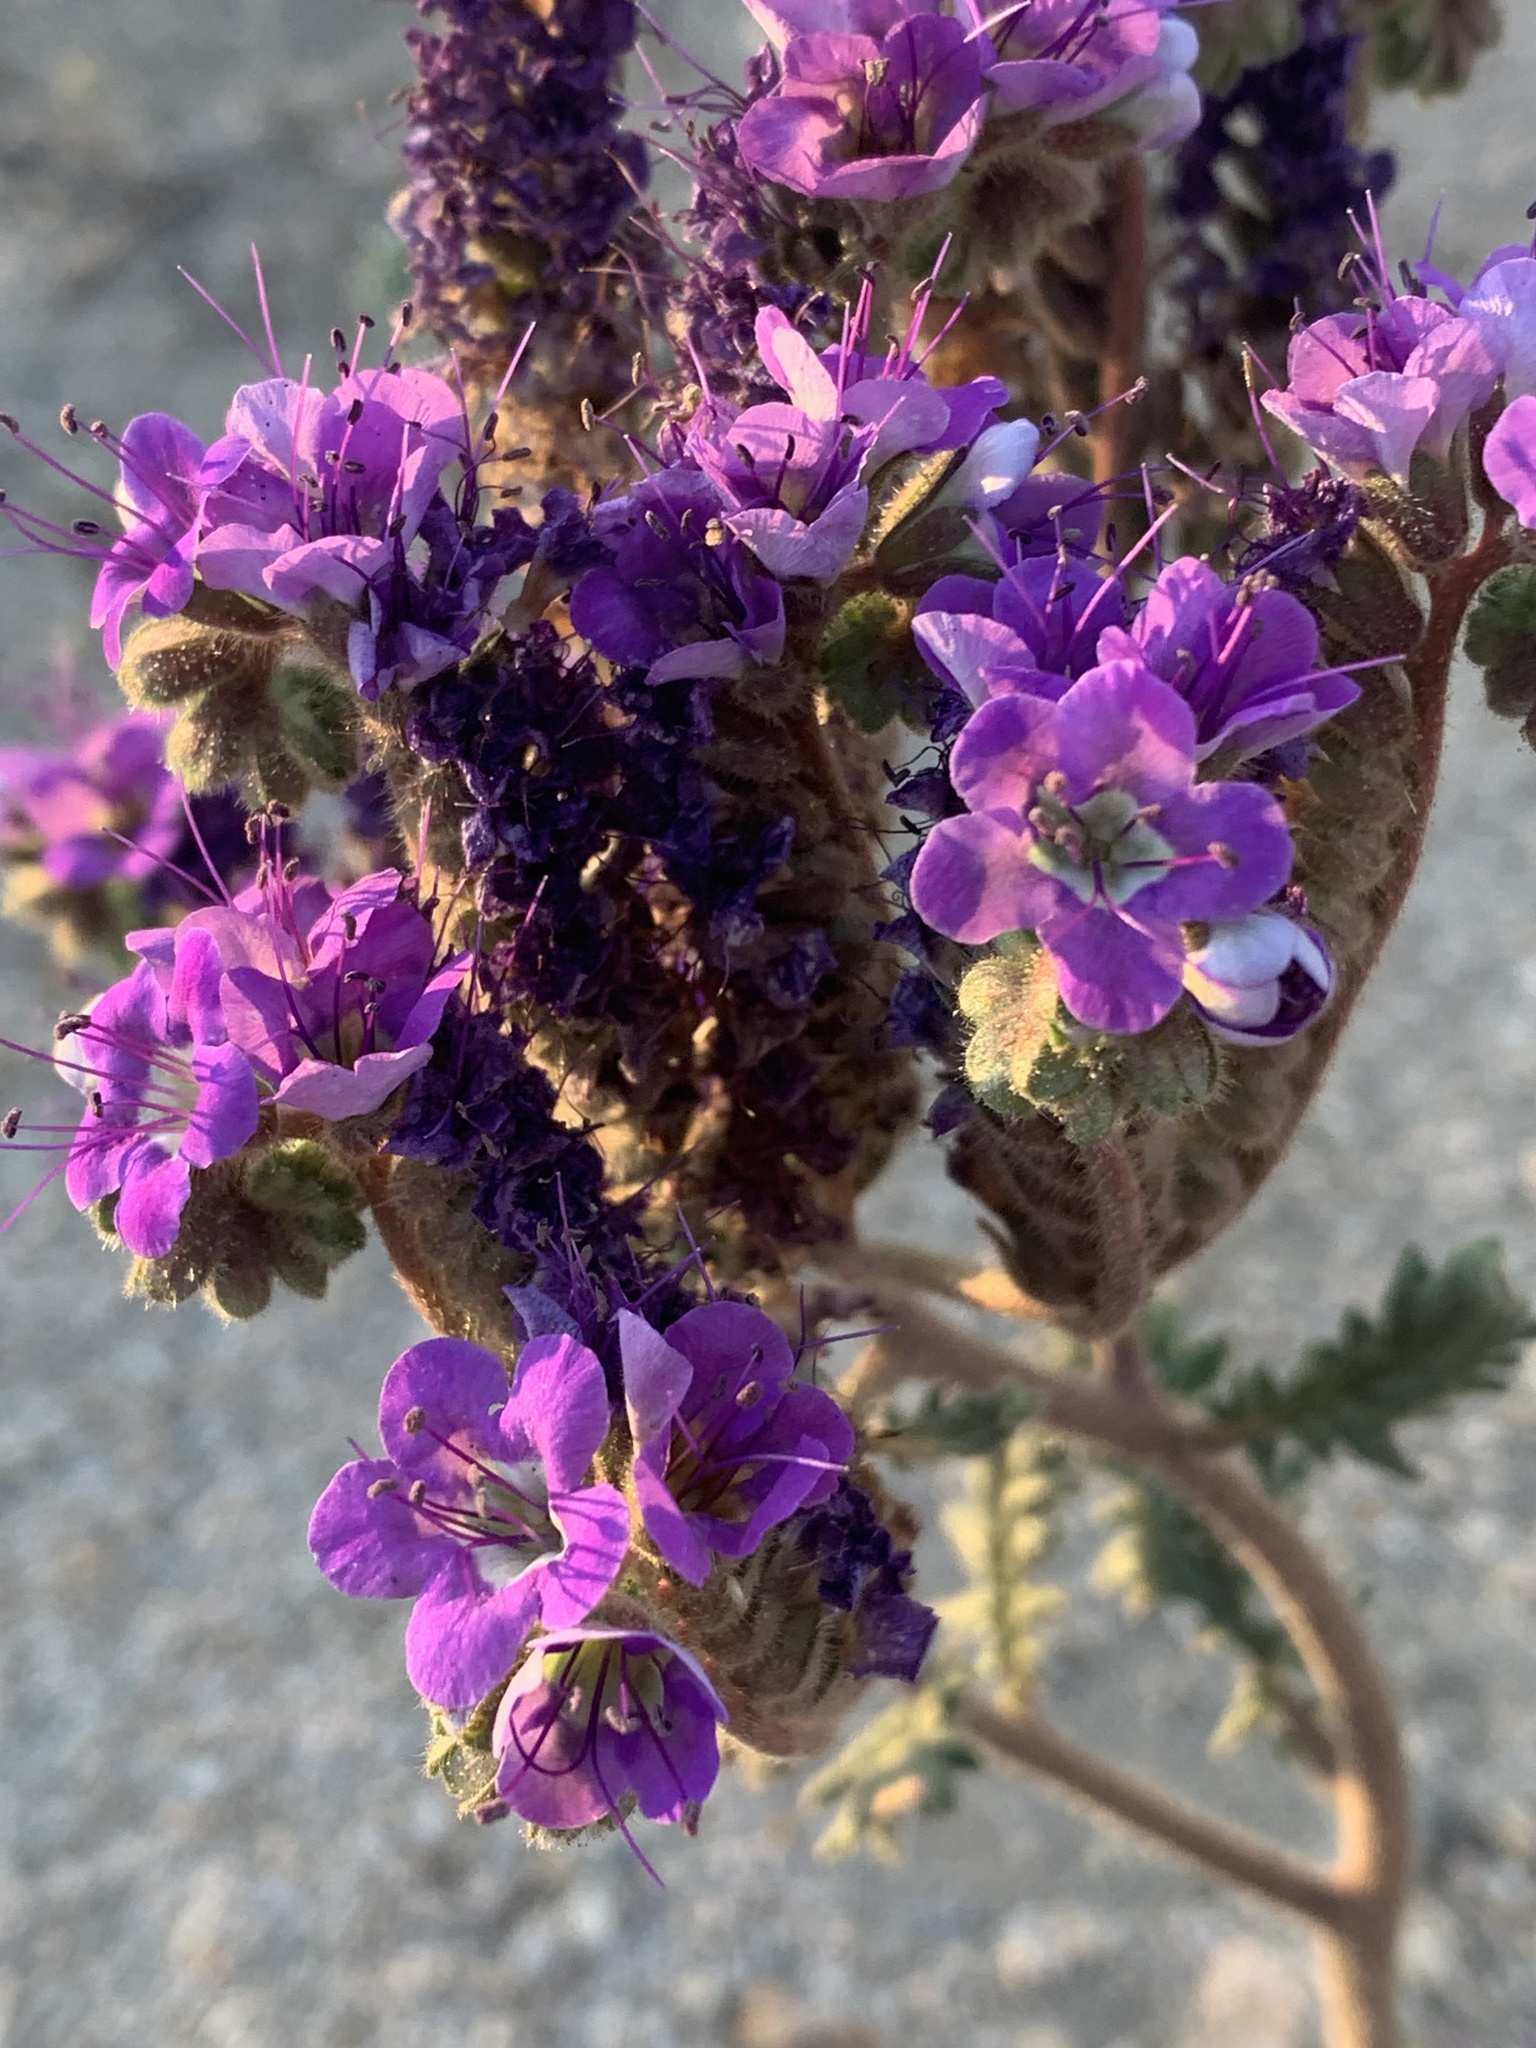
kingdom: Plantae
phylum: Tracheophyta
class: Magnoliopsida
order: Boraginales
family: Hydrophyllaceae
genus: Phacelia
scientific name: Phacelia crenulata
